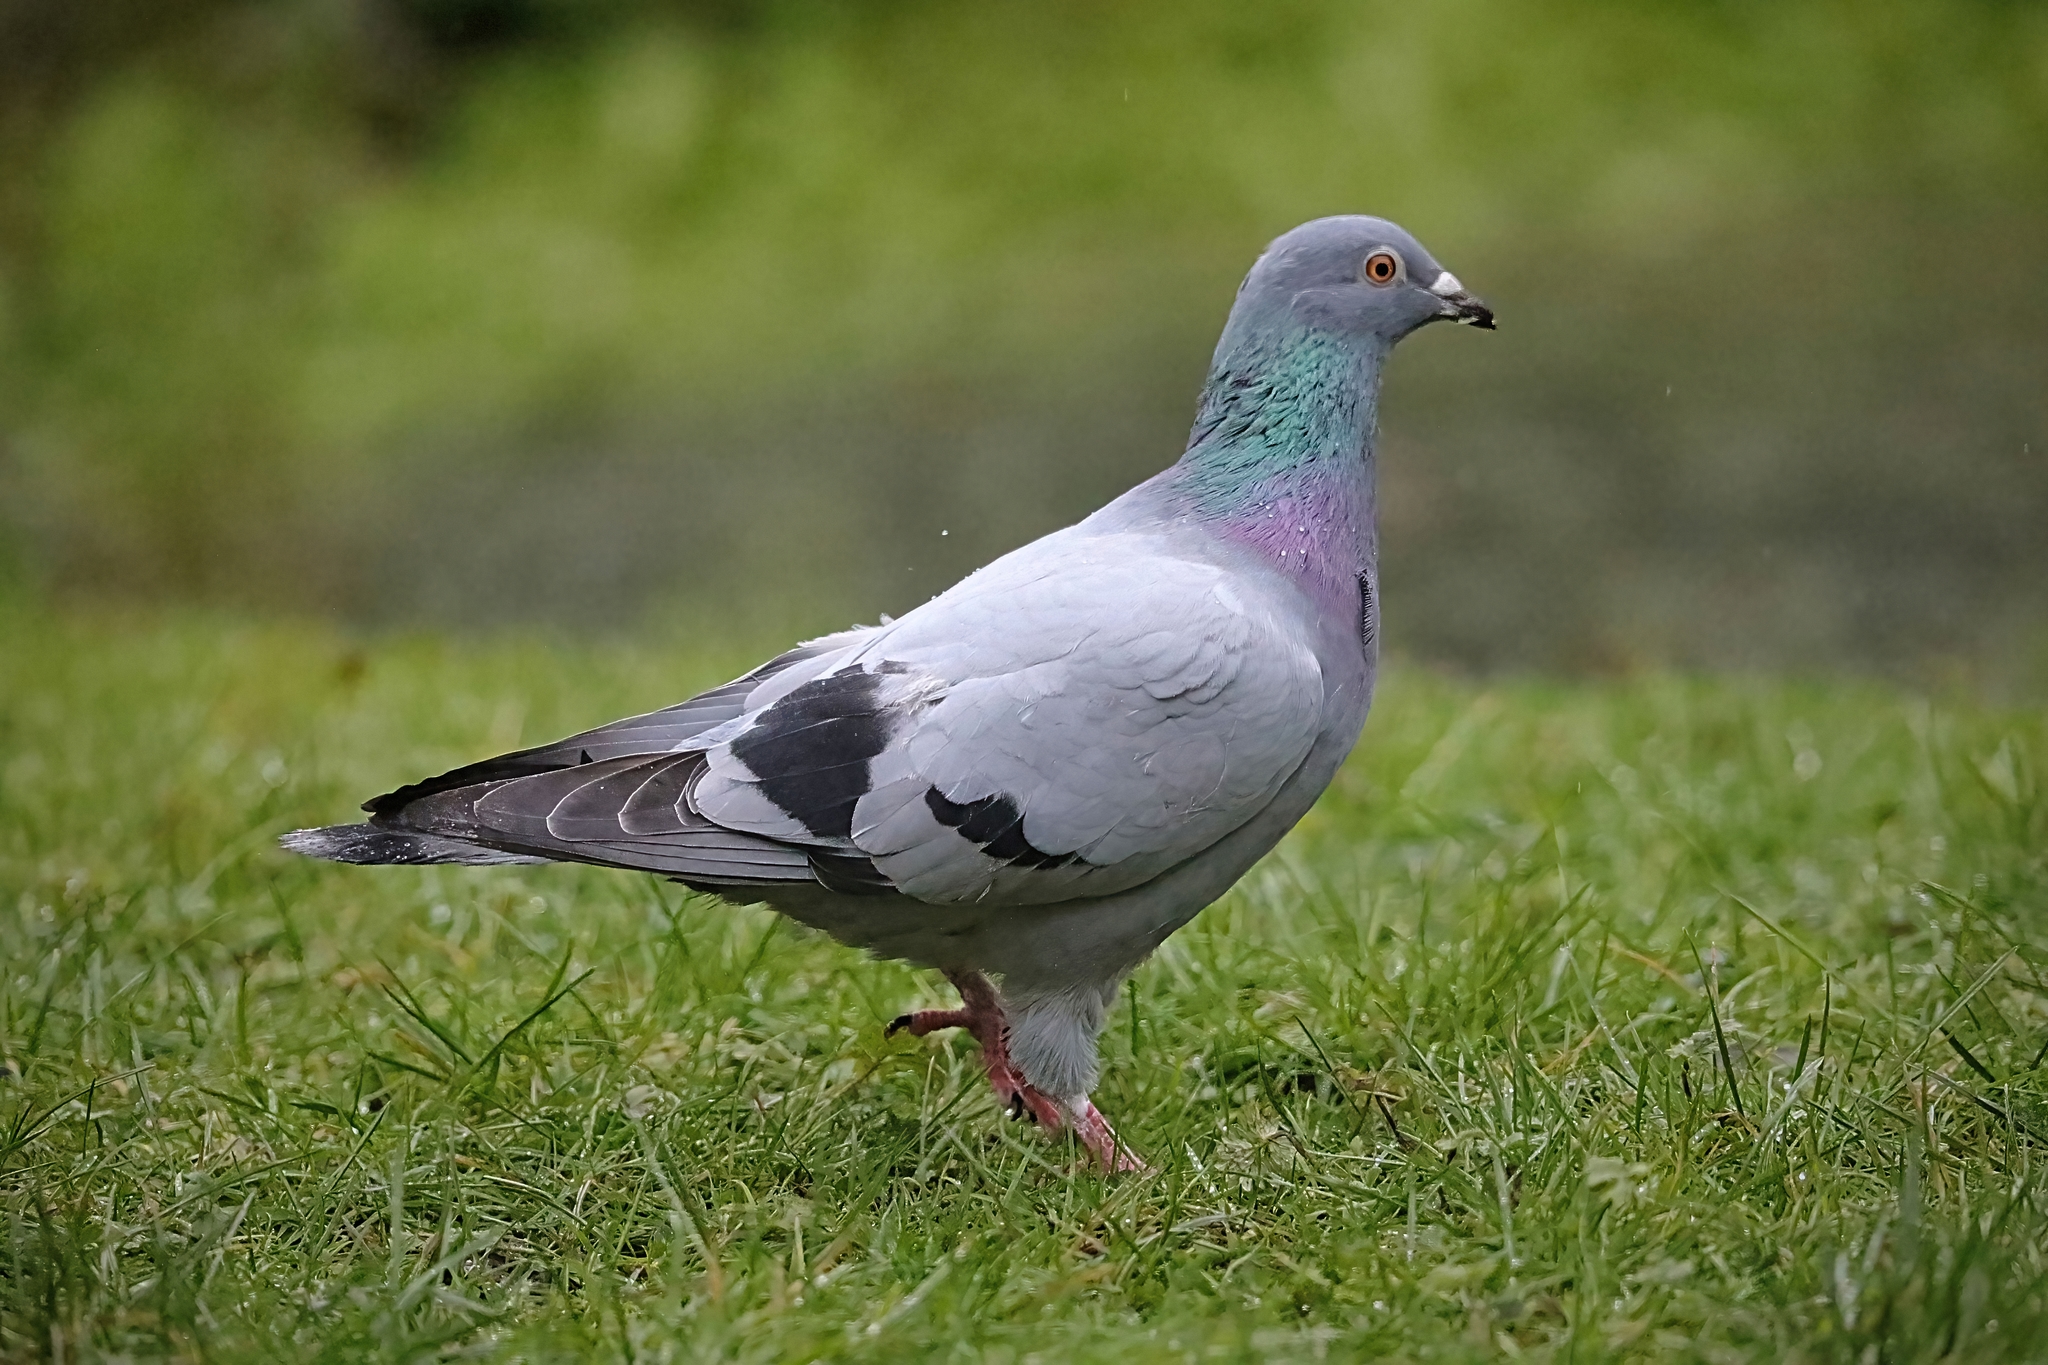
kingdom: Animalia
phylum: Chordata
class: Aves
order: Columbiformes
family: Columbidae
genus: Columba
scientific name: Columba livia
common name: Rock pigeon
